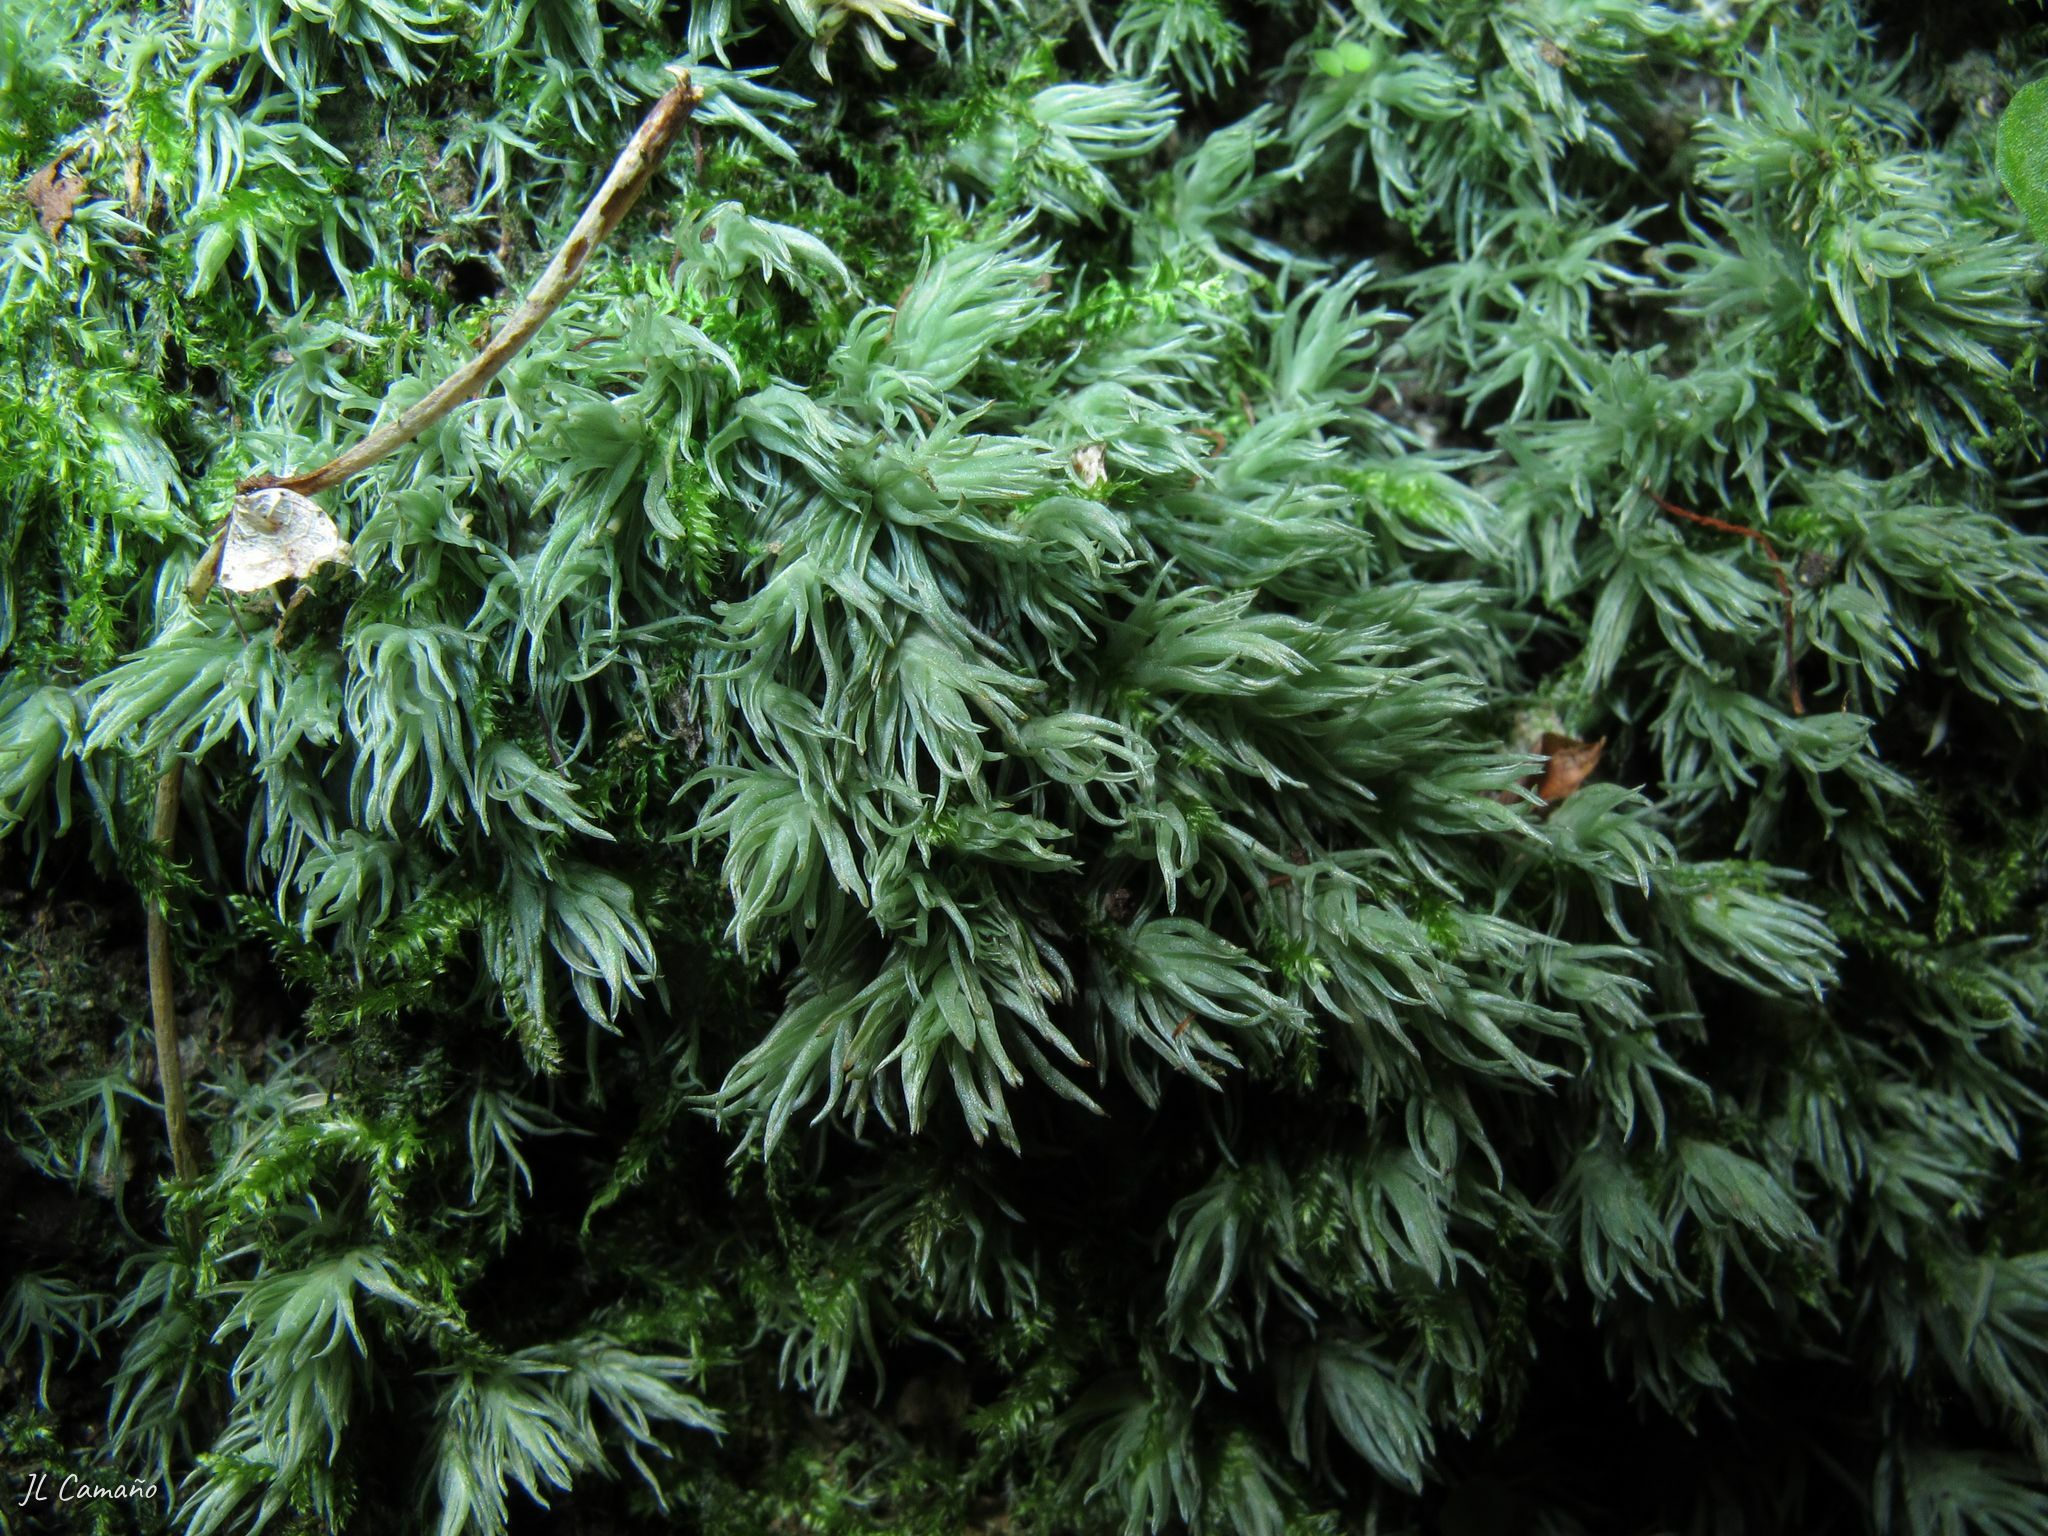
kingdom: Plantae
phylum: Bryophyta
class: Bryopsida
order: Dicranales
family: Leucobryaceae
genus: Leucobryum
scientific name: Leucobryum juniperoideum
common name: Smaller white-moss
